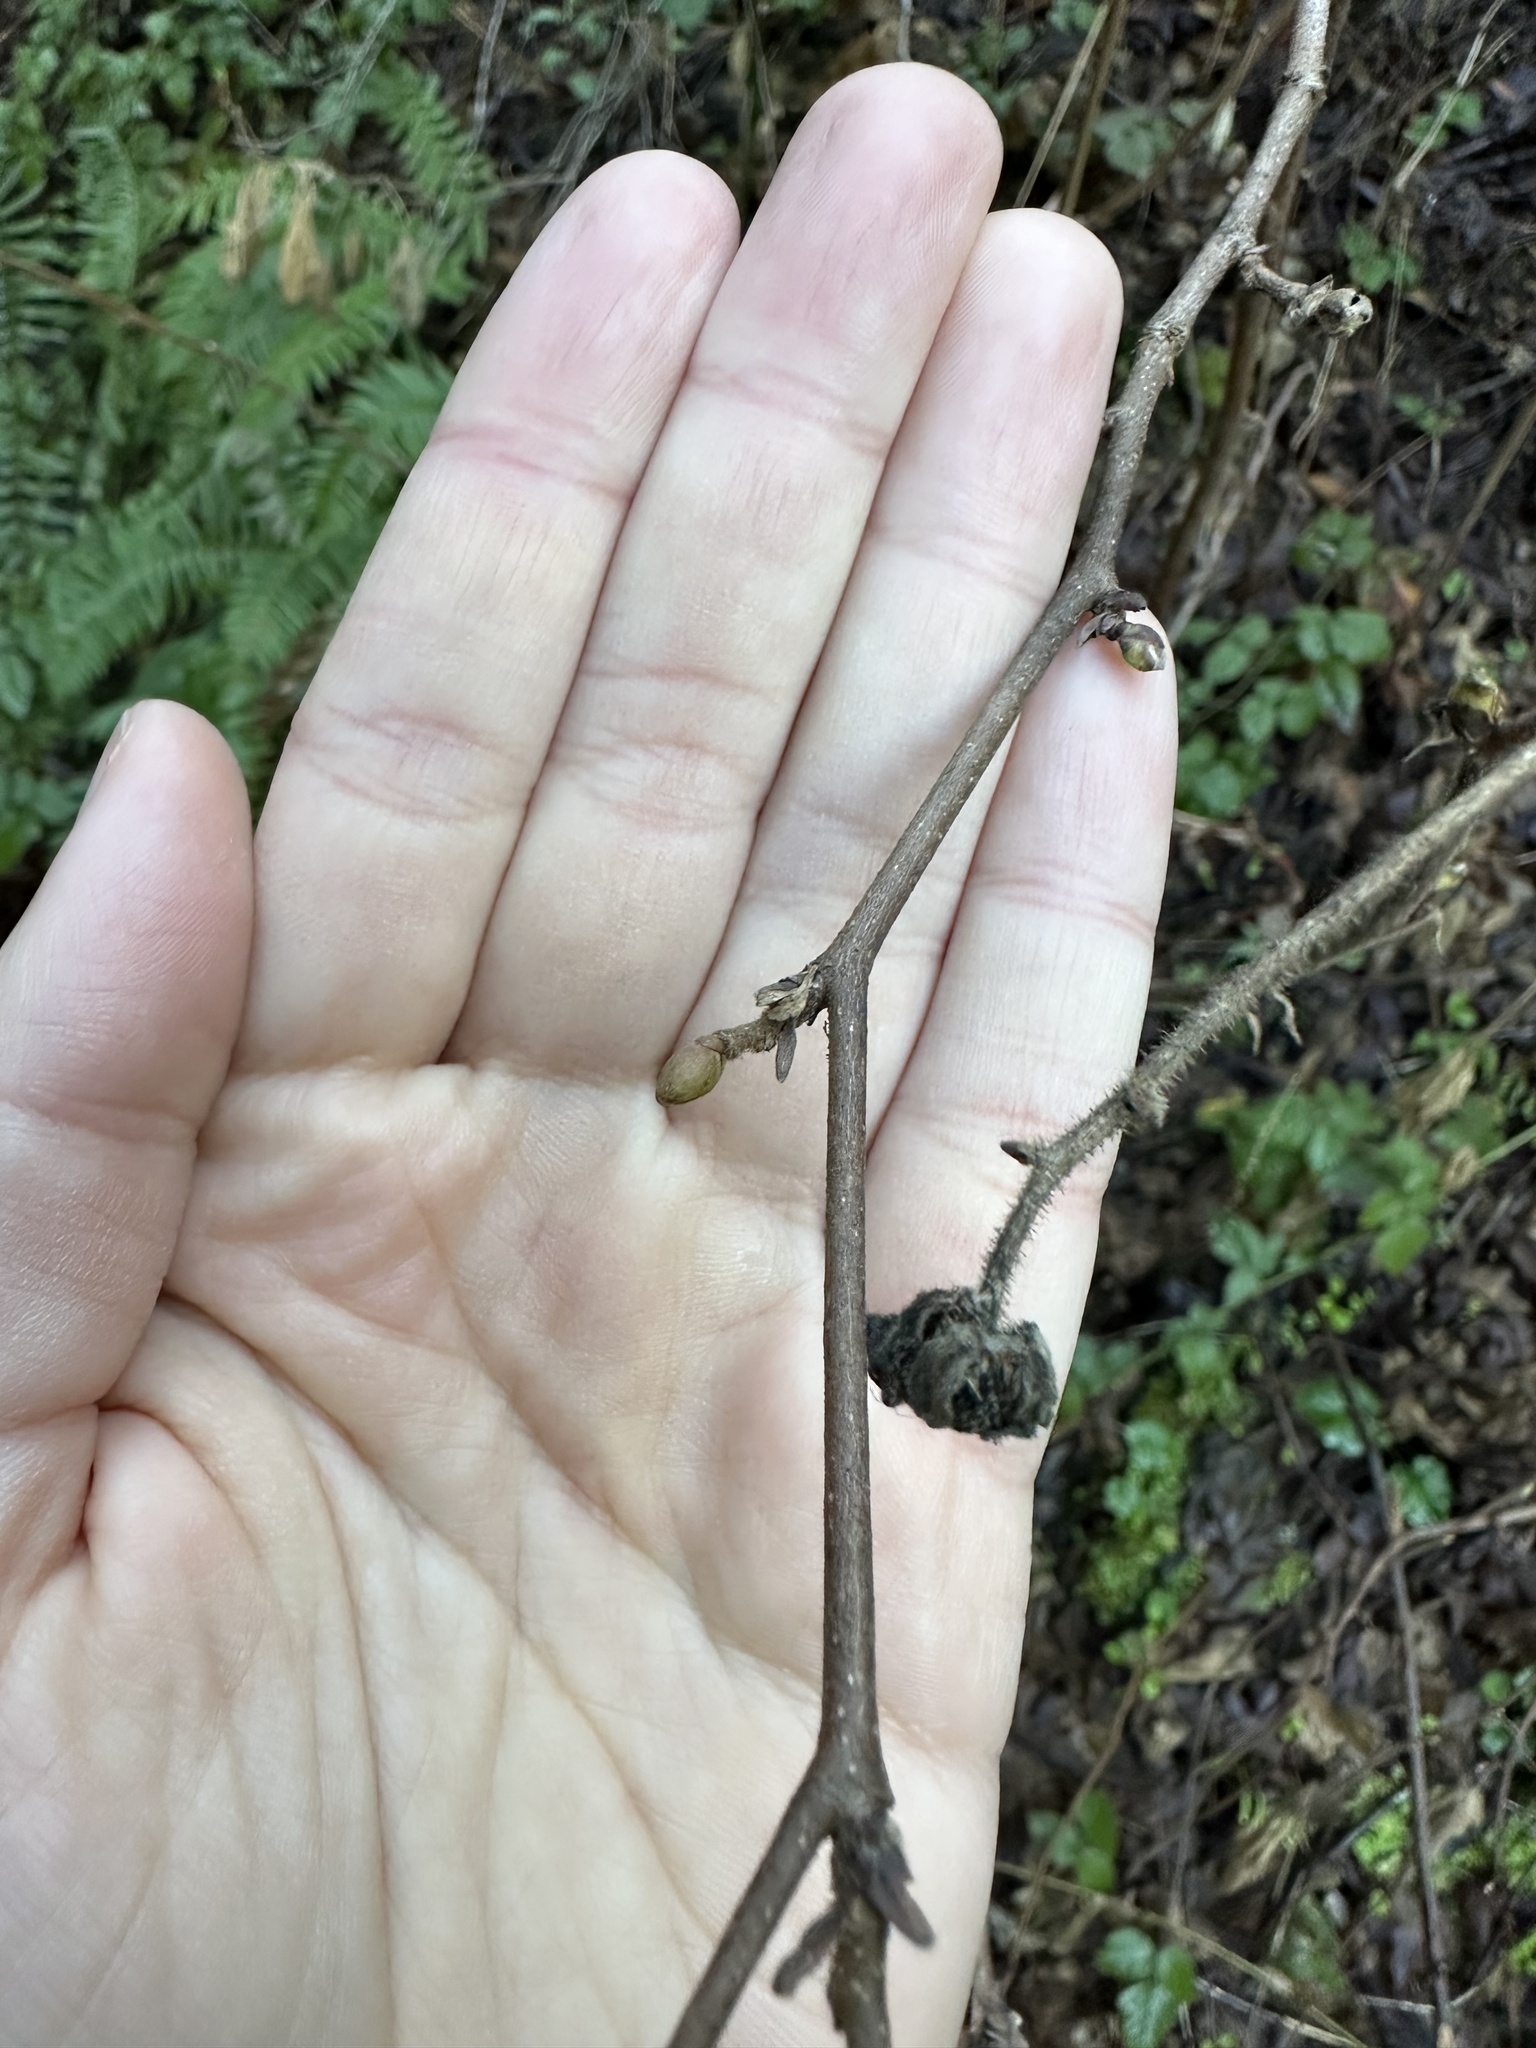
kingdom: Plantae
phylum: Tracheophyta
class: Magnoliopsida
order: Fagales
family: Betulaceae
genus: Corylus
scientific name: Corylus cornuta
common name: Beaked hazel
